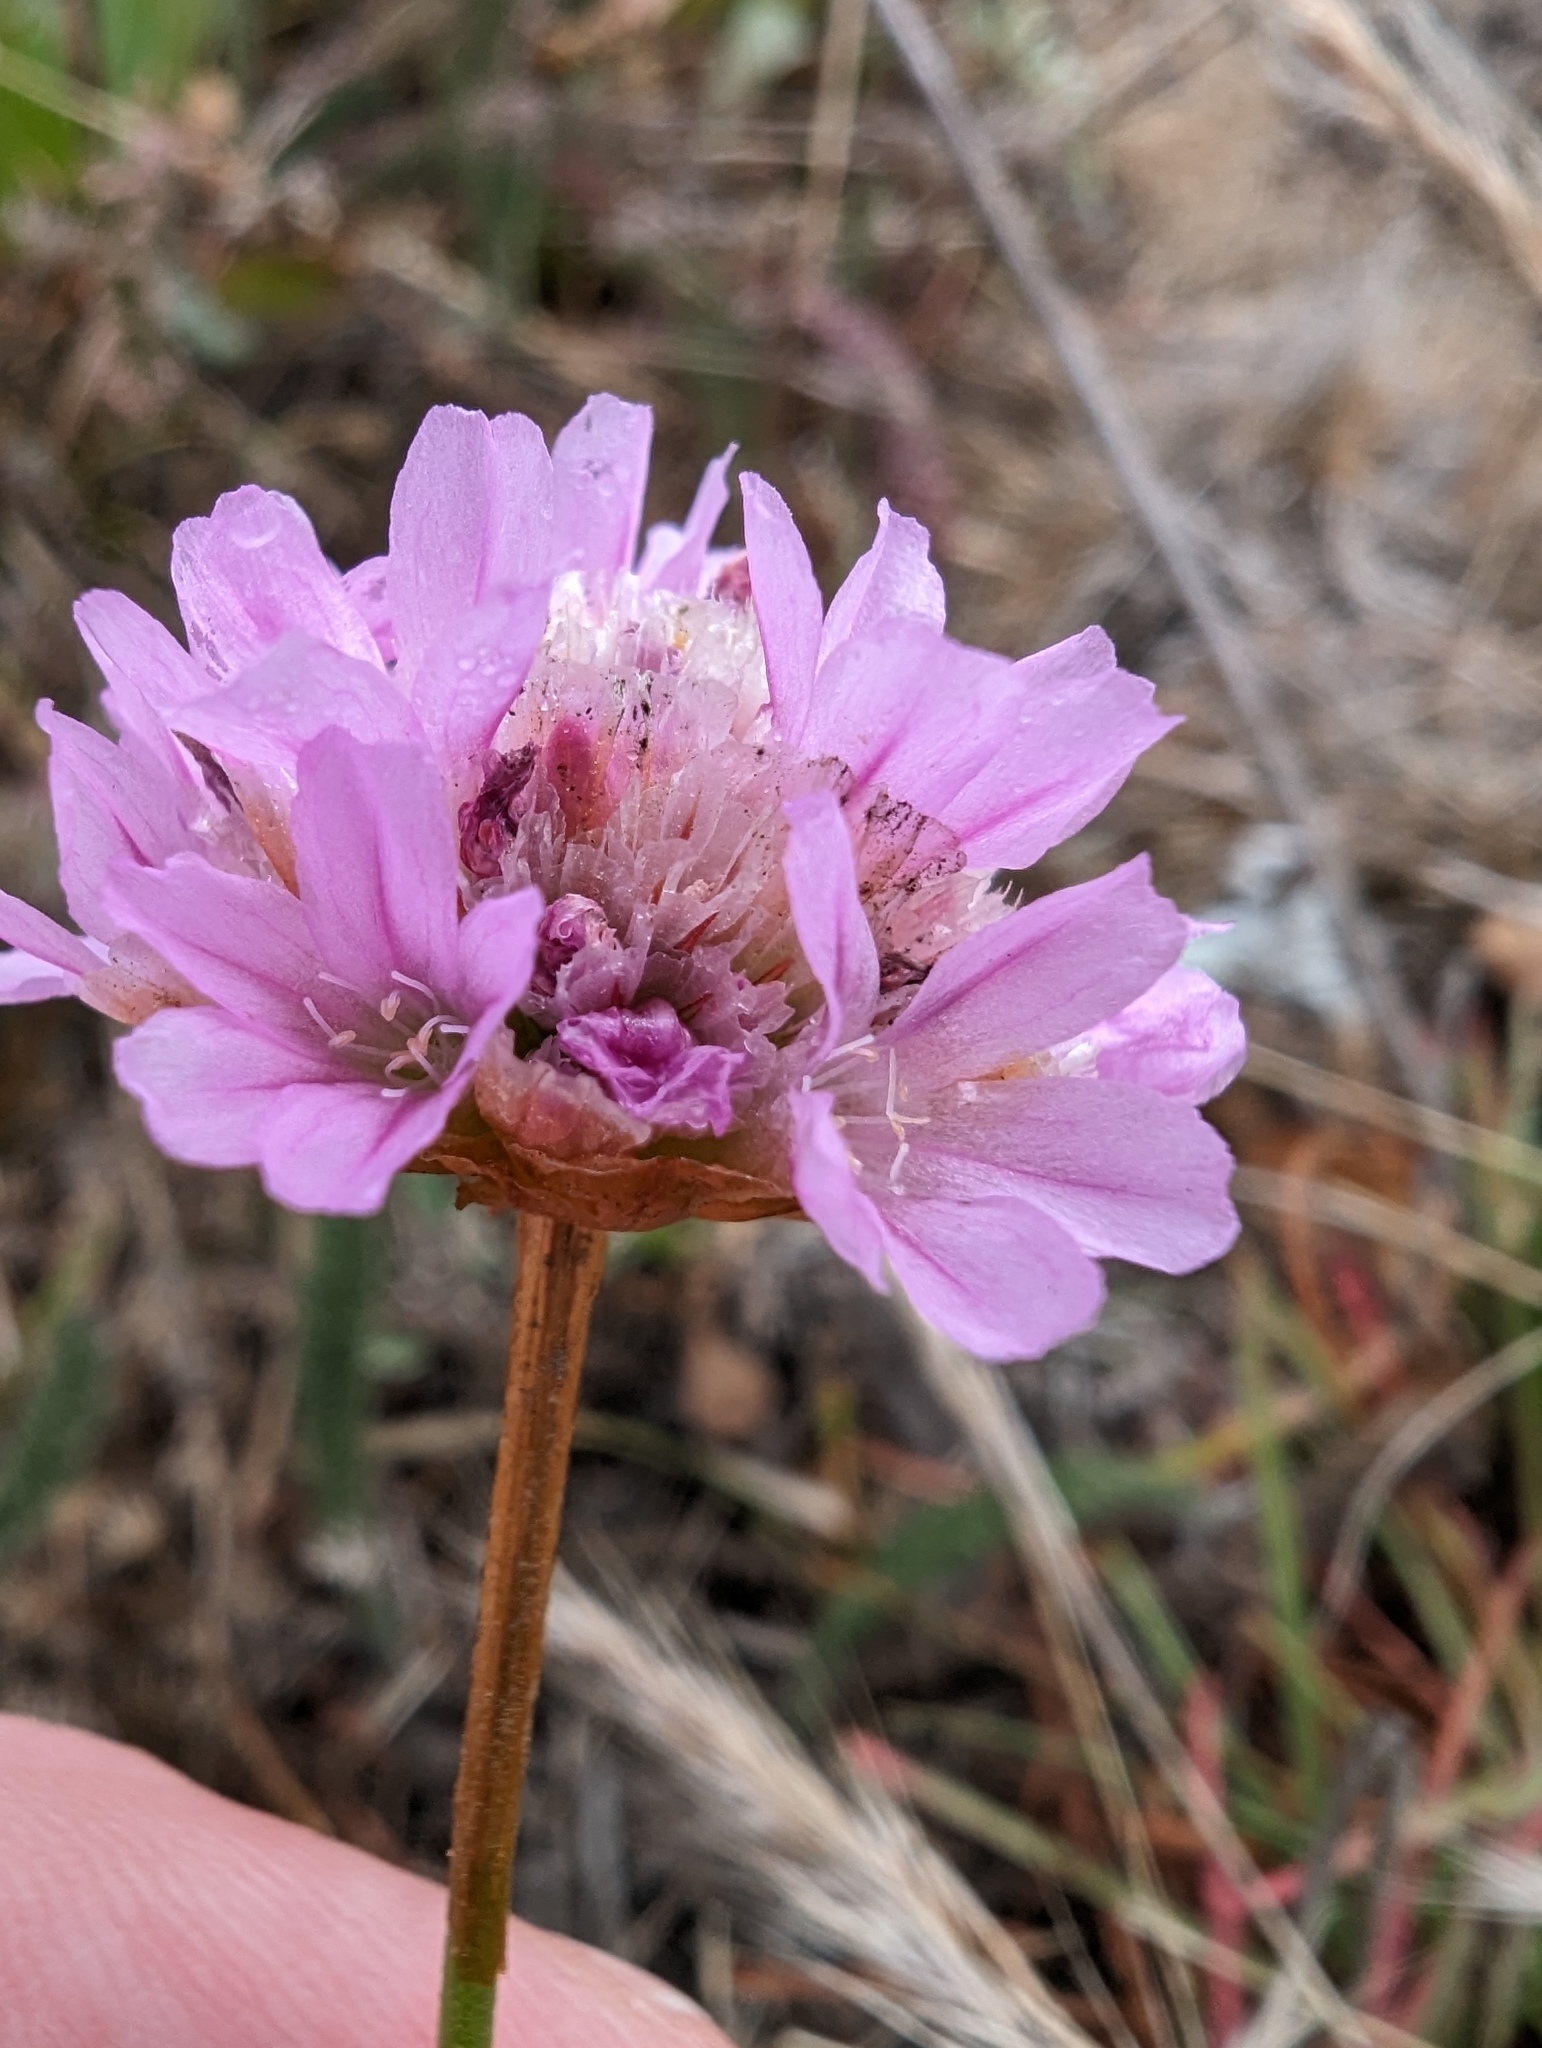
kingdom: Plantae
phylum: Tracheophyta
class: Magnoliopsida
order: Caryophyllales
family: Plumbaginaceae
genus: Armeria
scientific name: Armeria maritima
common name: Thrift
